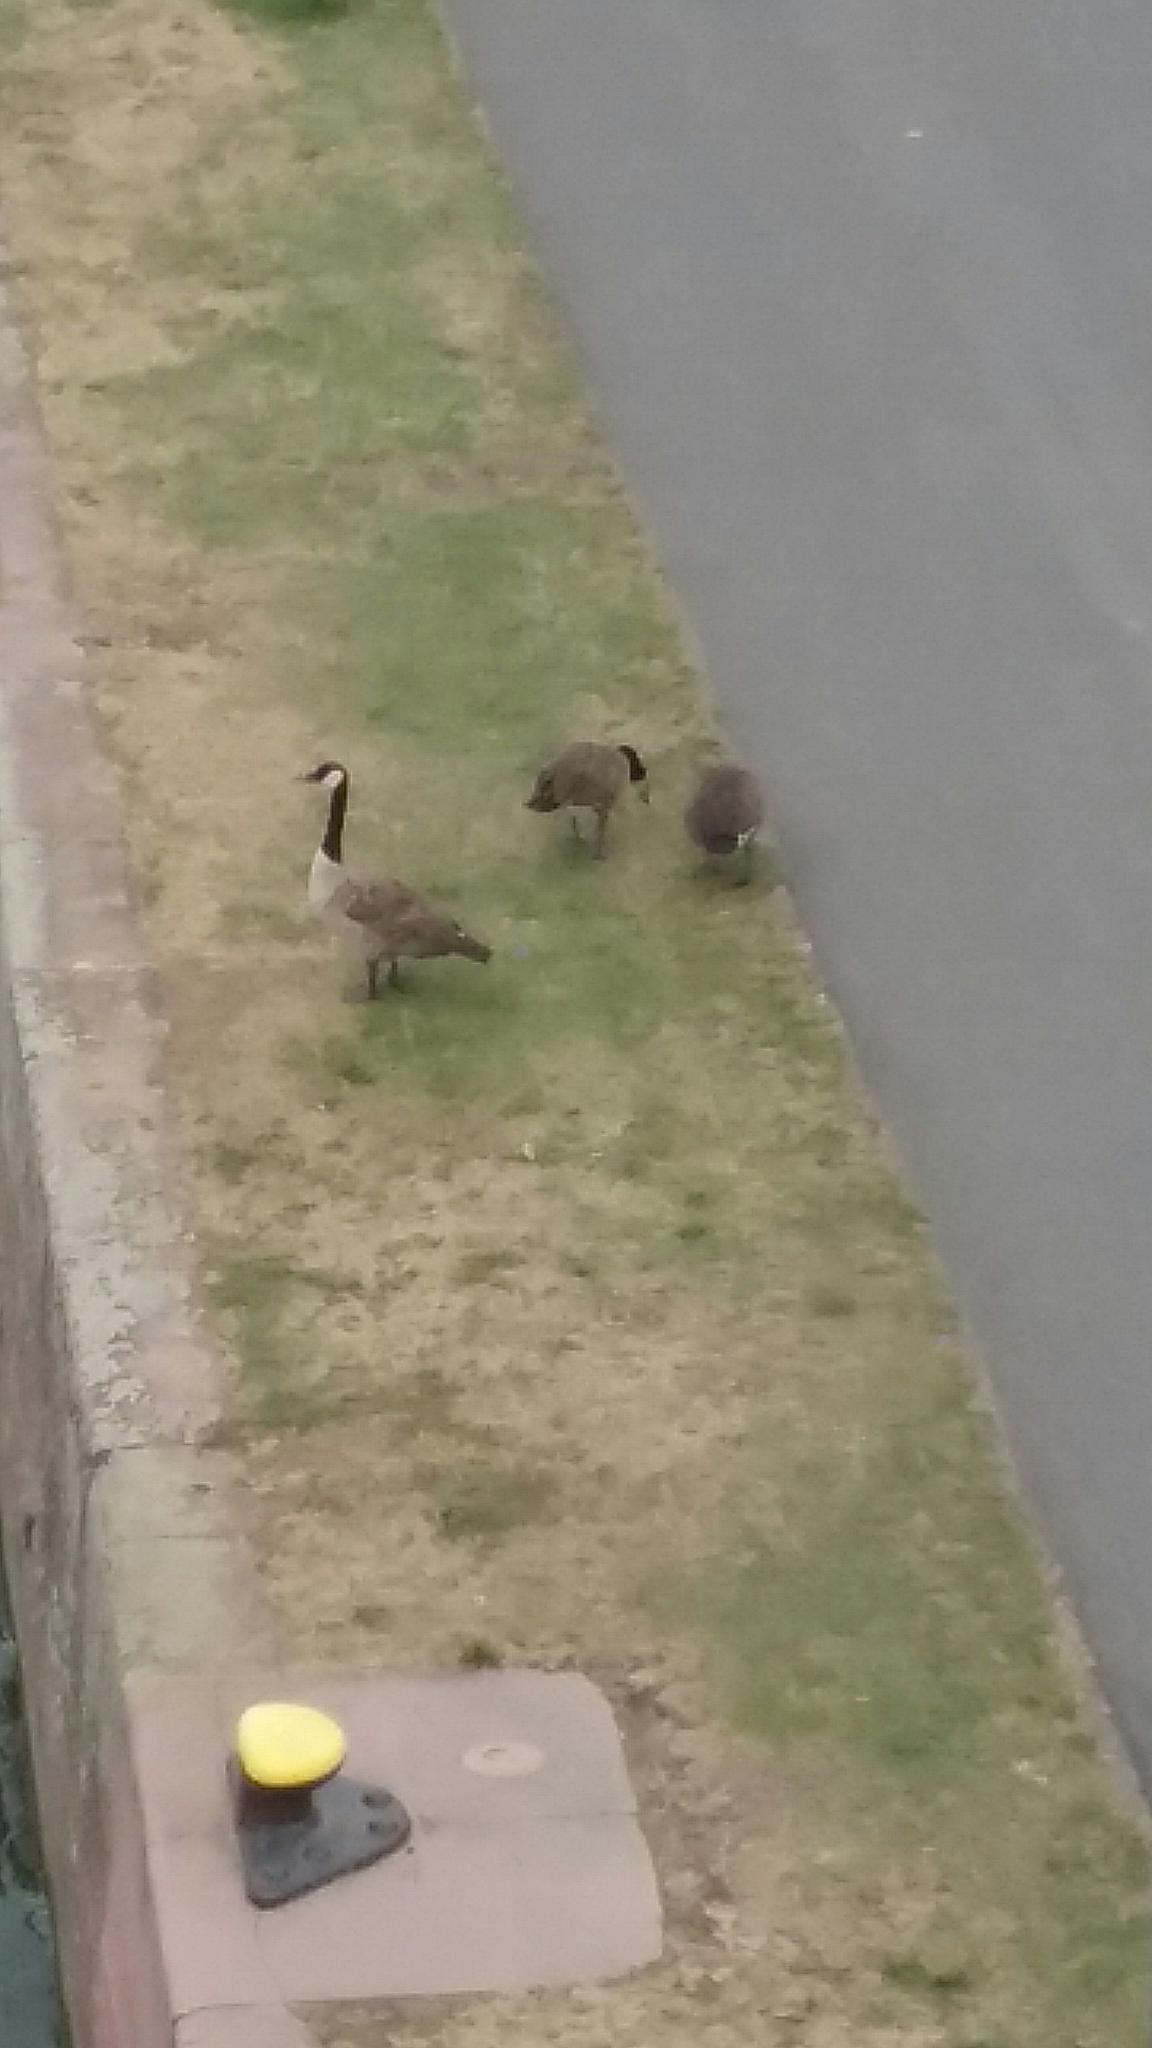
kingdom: Animalia
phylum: Chordata
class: Aves
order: Anseriformes
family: Anatidae
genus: Branta
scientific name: Branta canadensis
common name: Canada goose
